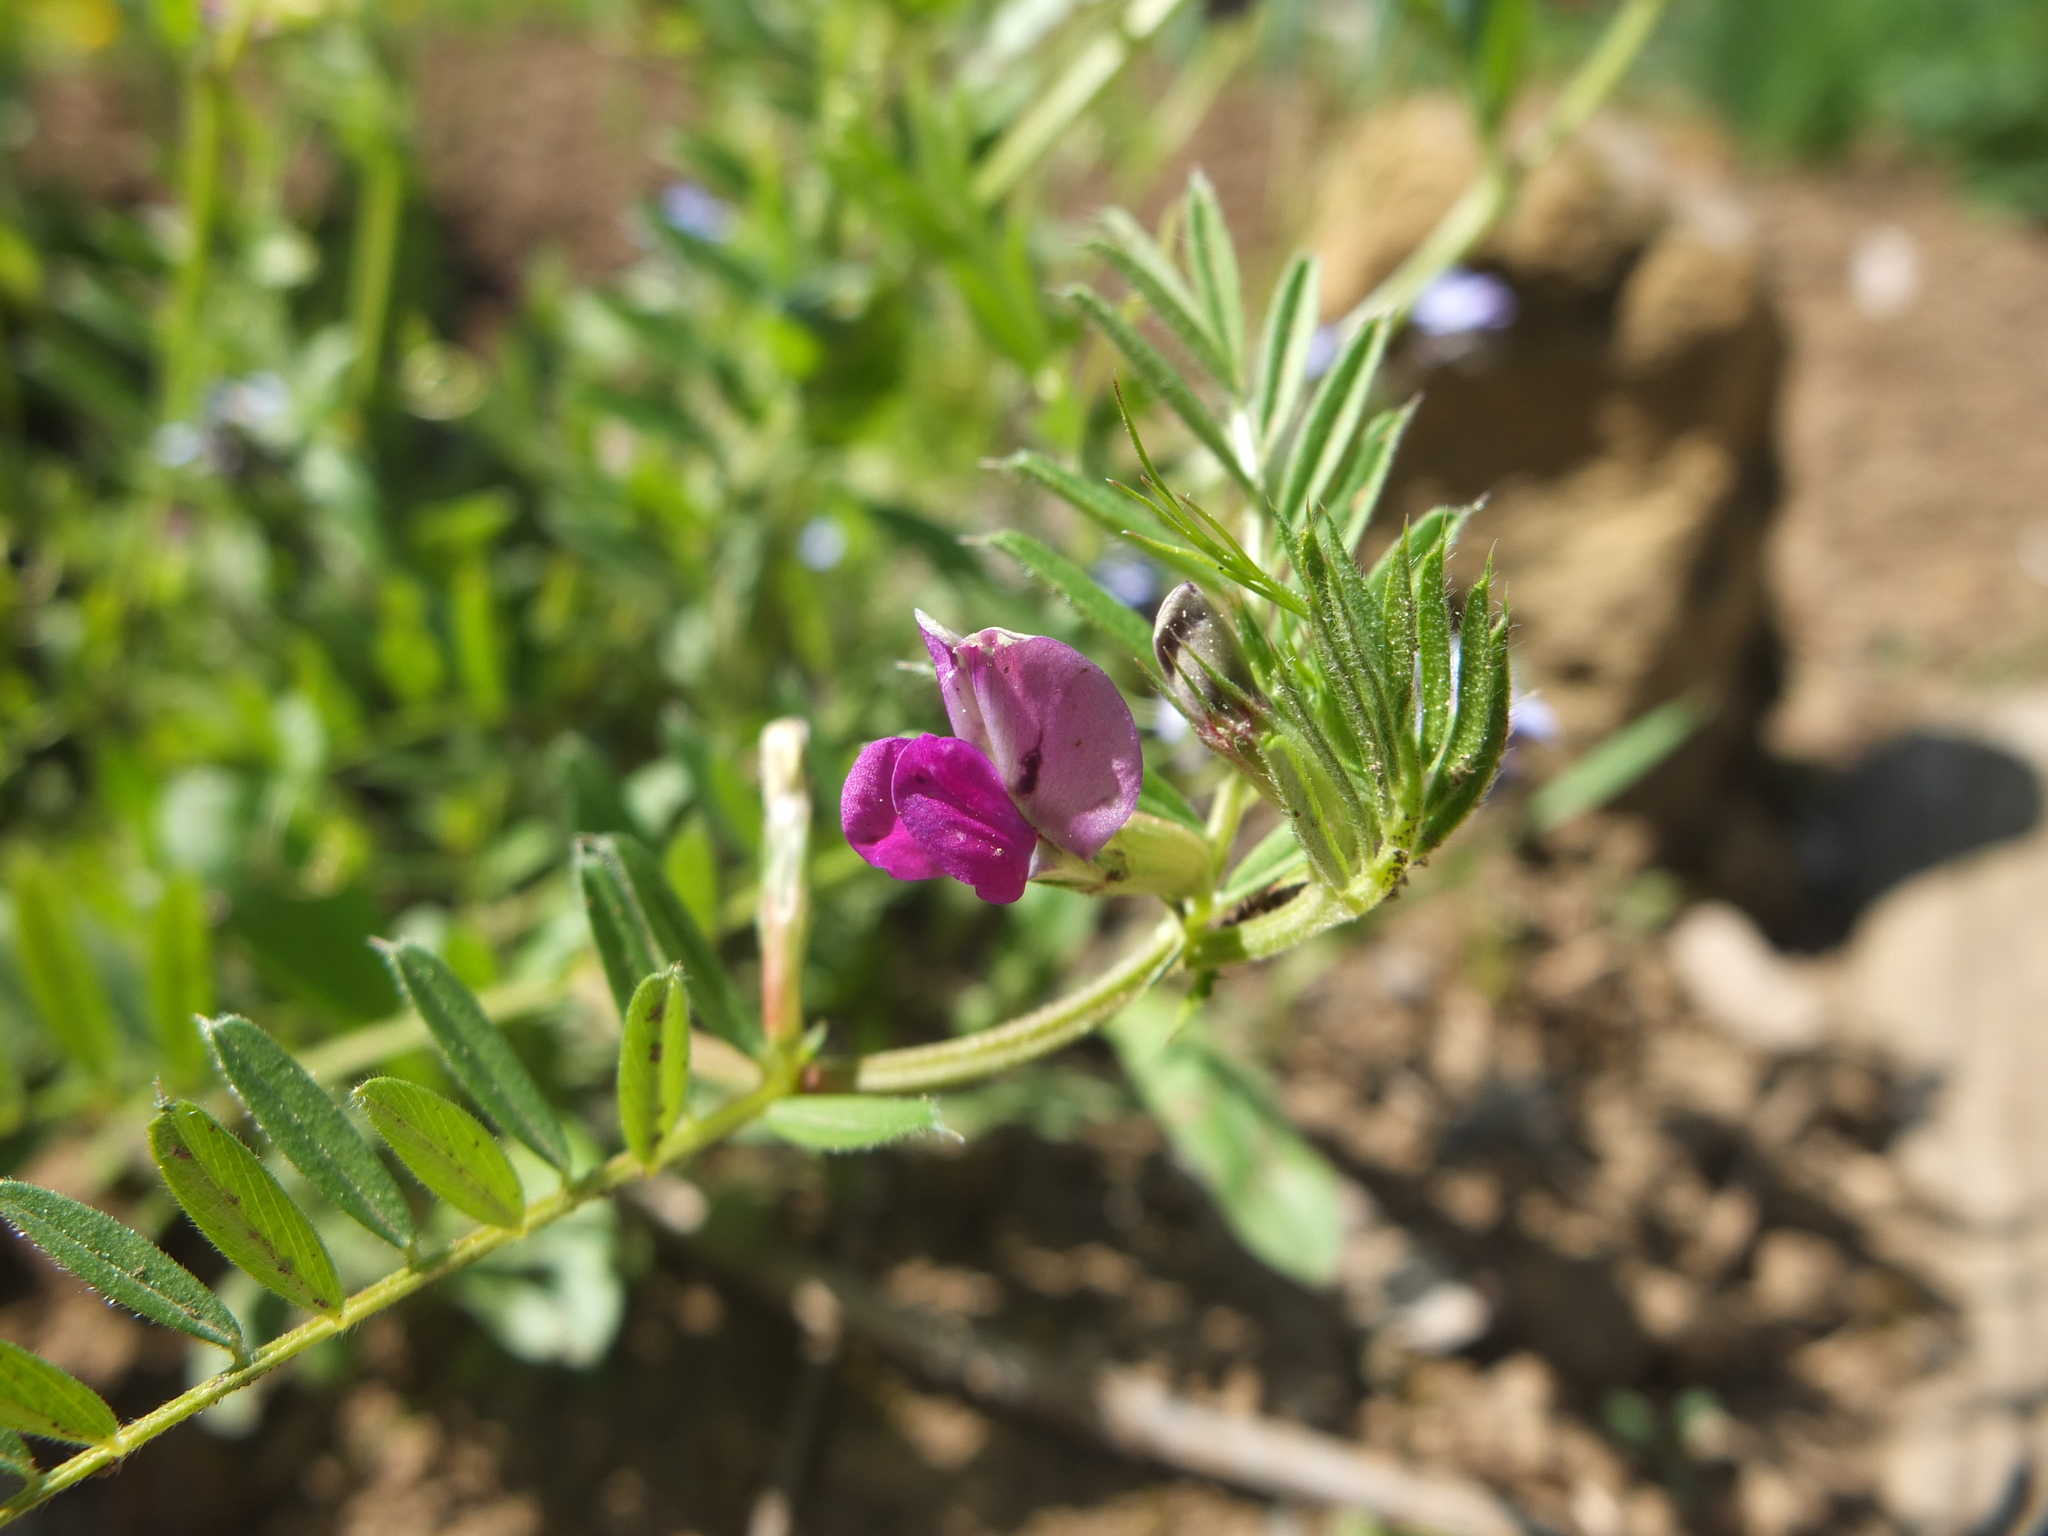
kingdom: Plantae
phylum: Tracheophyta
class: Magnoliopsida
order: Fabales
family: Fabaceae
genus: Vicia
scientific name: Vicia sativa
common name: Garden vetch
